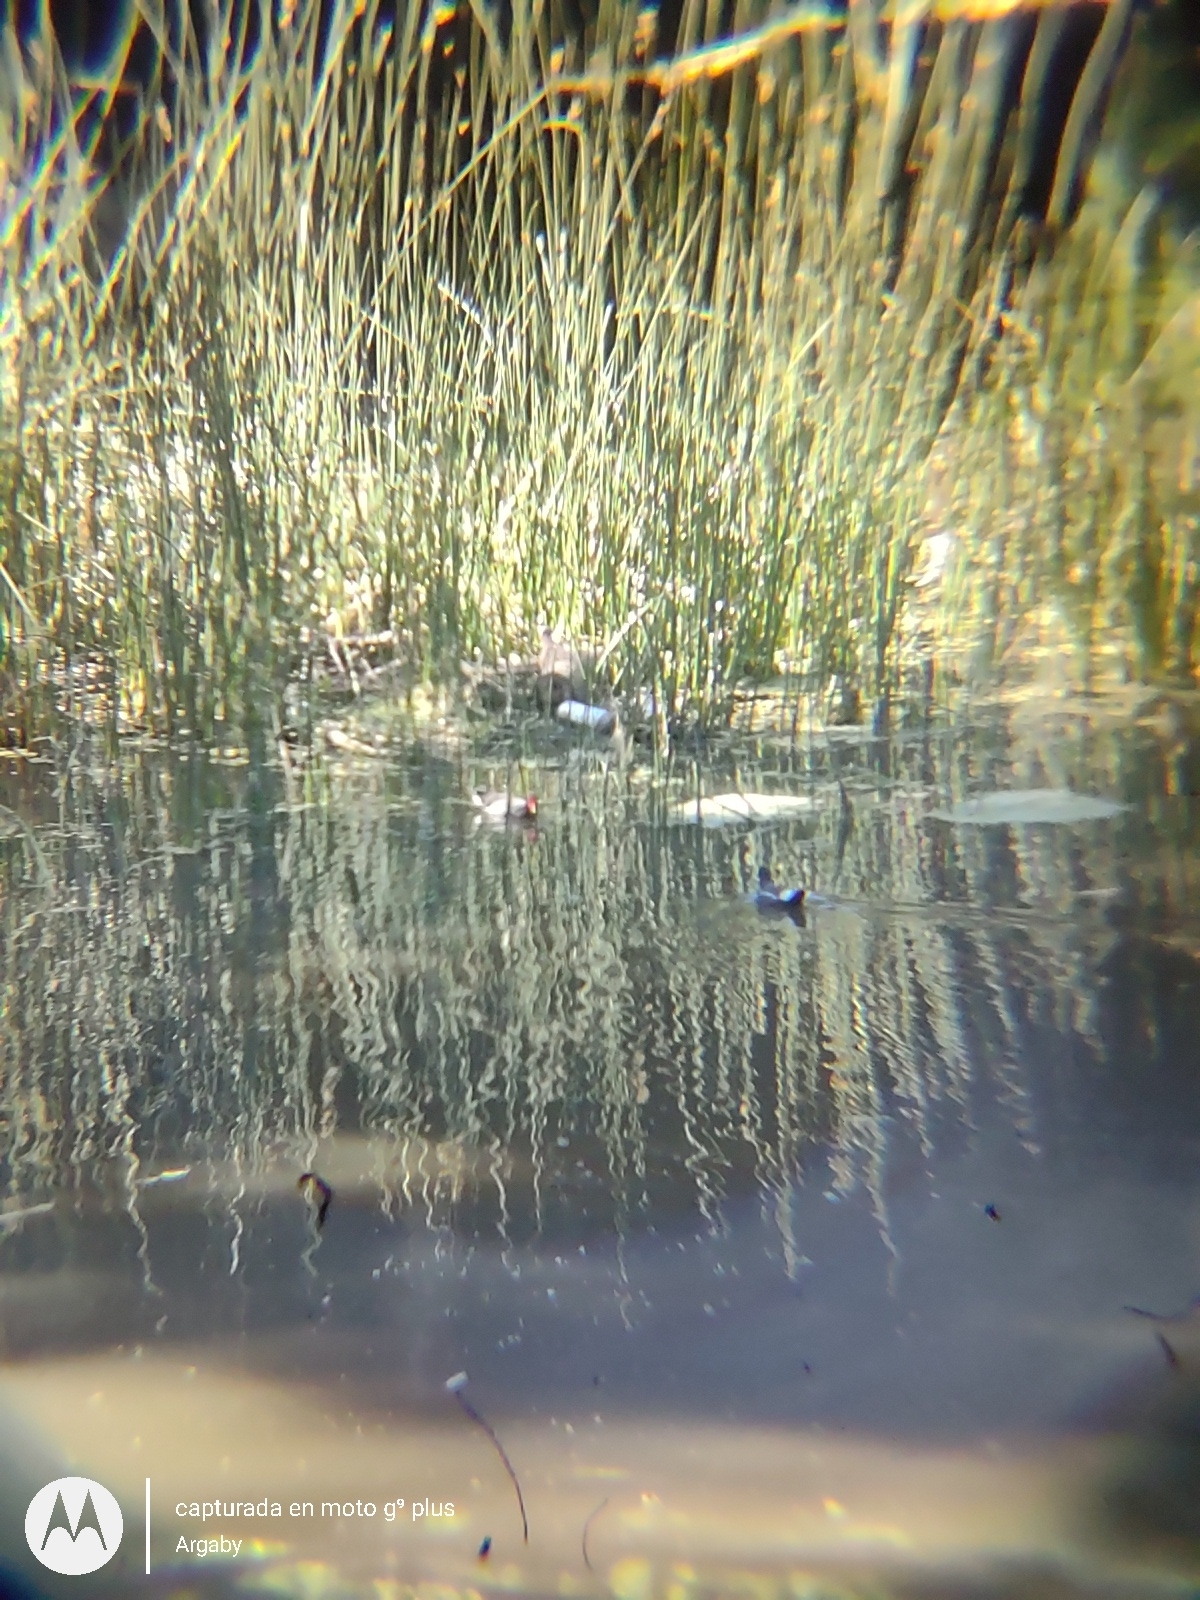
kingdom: Animalia
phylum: Chordata
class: Aves
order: Gruiformes
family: Rallidae
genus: Gallinula
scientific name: Gallinula chloropus
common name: Common moorhen
